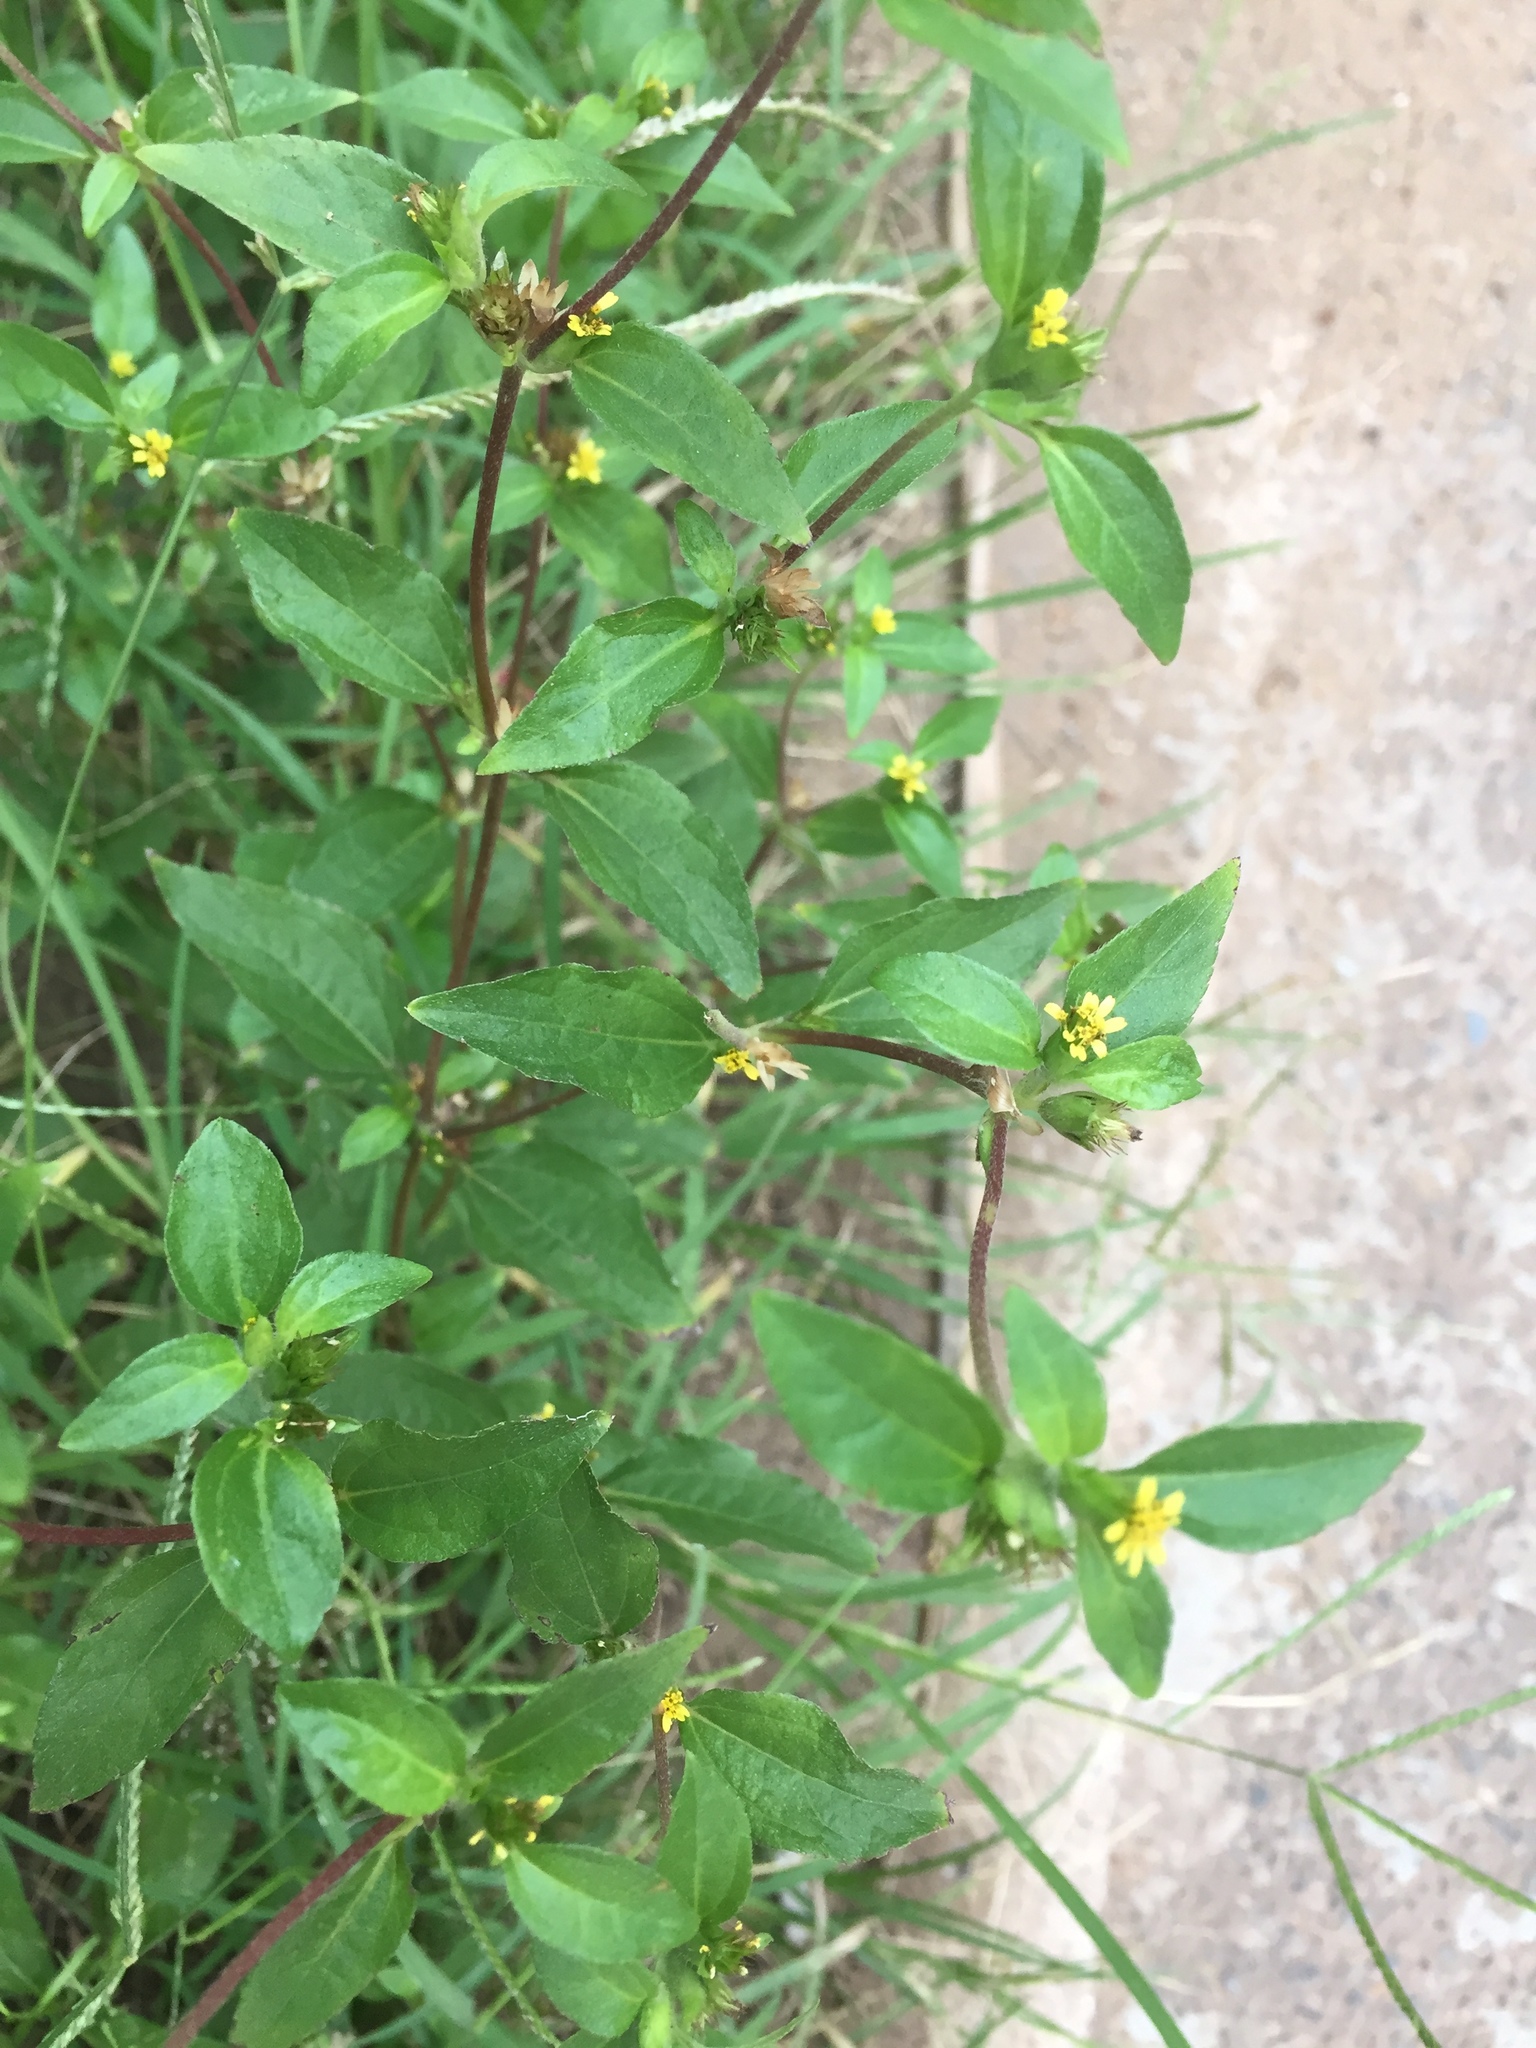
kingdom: Plantae
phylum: Tracheophyta
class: Magnoliopsida
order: Asterales
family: Asteraceae
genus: Synedrella
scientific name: Synedrella nodiflora
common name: Nodeweed
